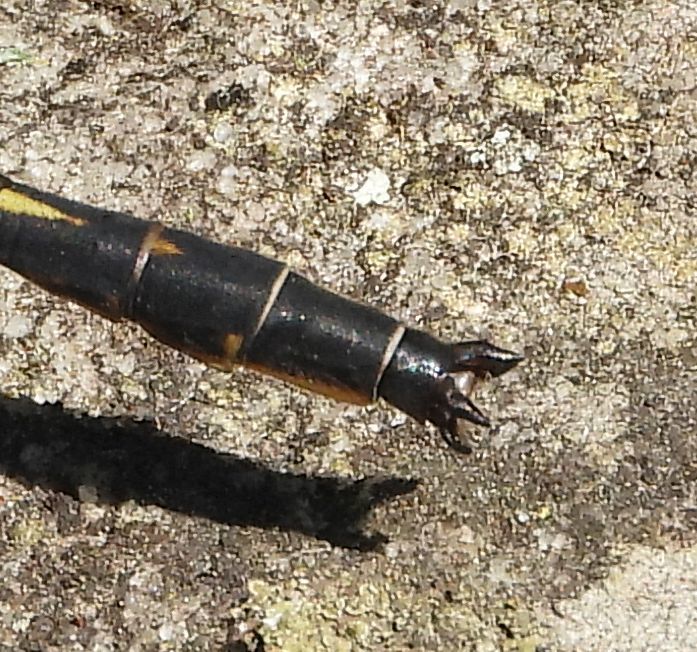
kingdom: Animalia
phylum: Arthropoda
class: Insecta
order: Odonata
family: Gomphidae
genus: Phanogomphus
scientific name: Phanogomphus spicatus
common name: Dusky clubtail
